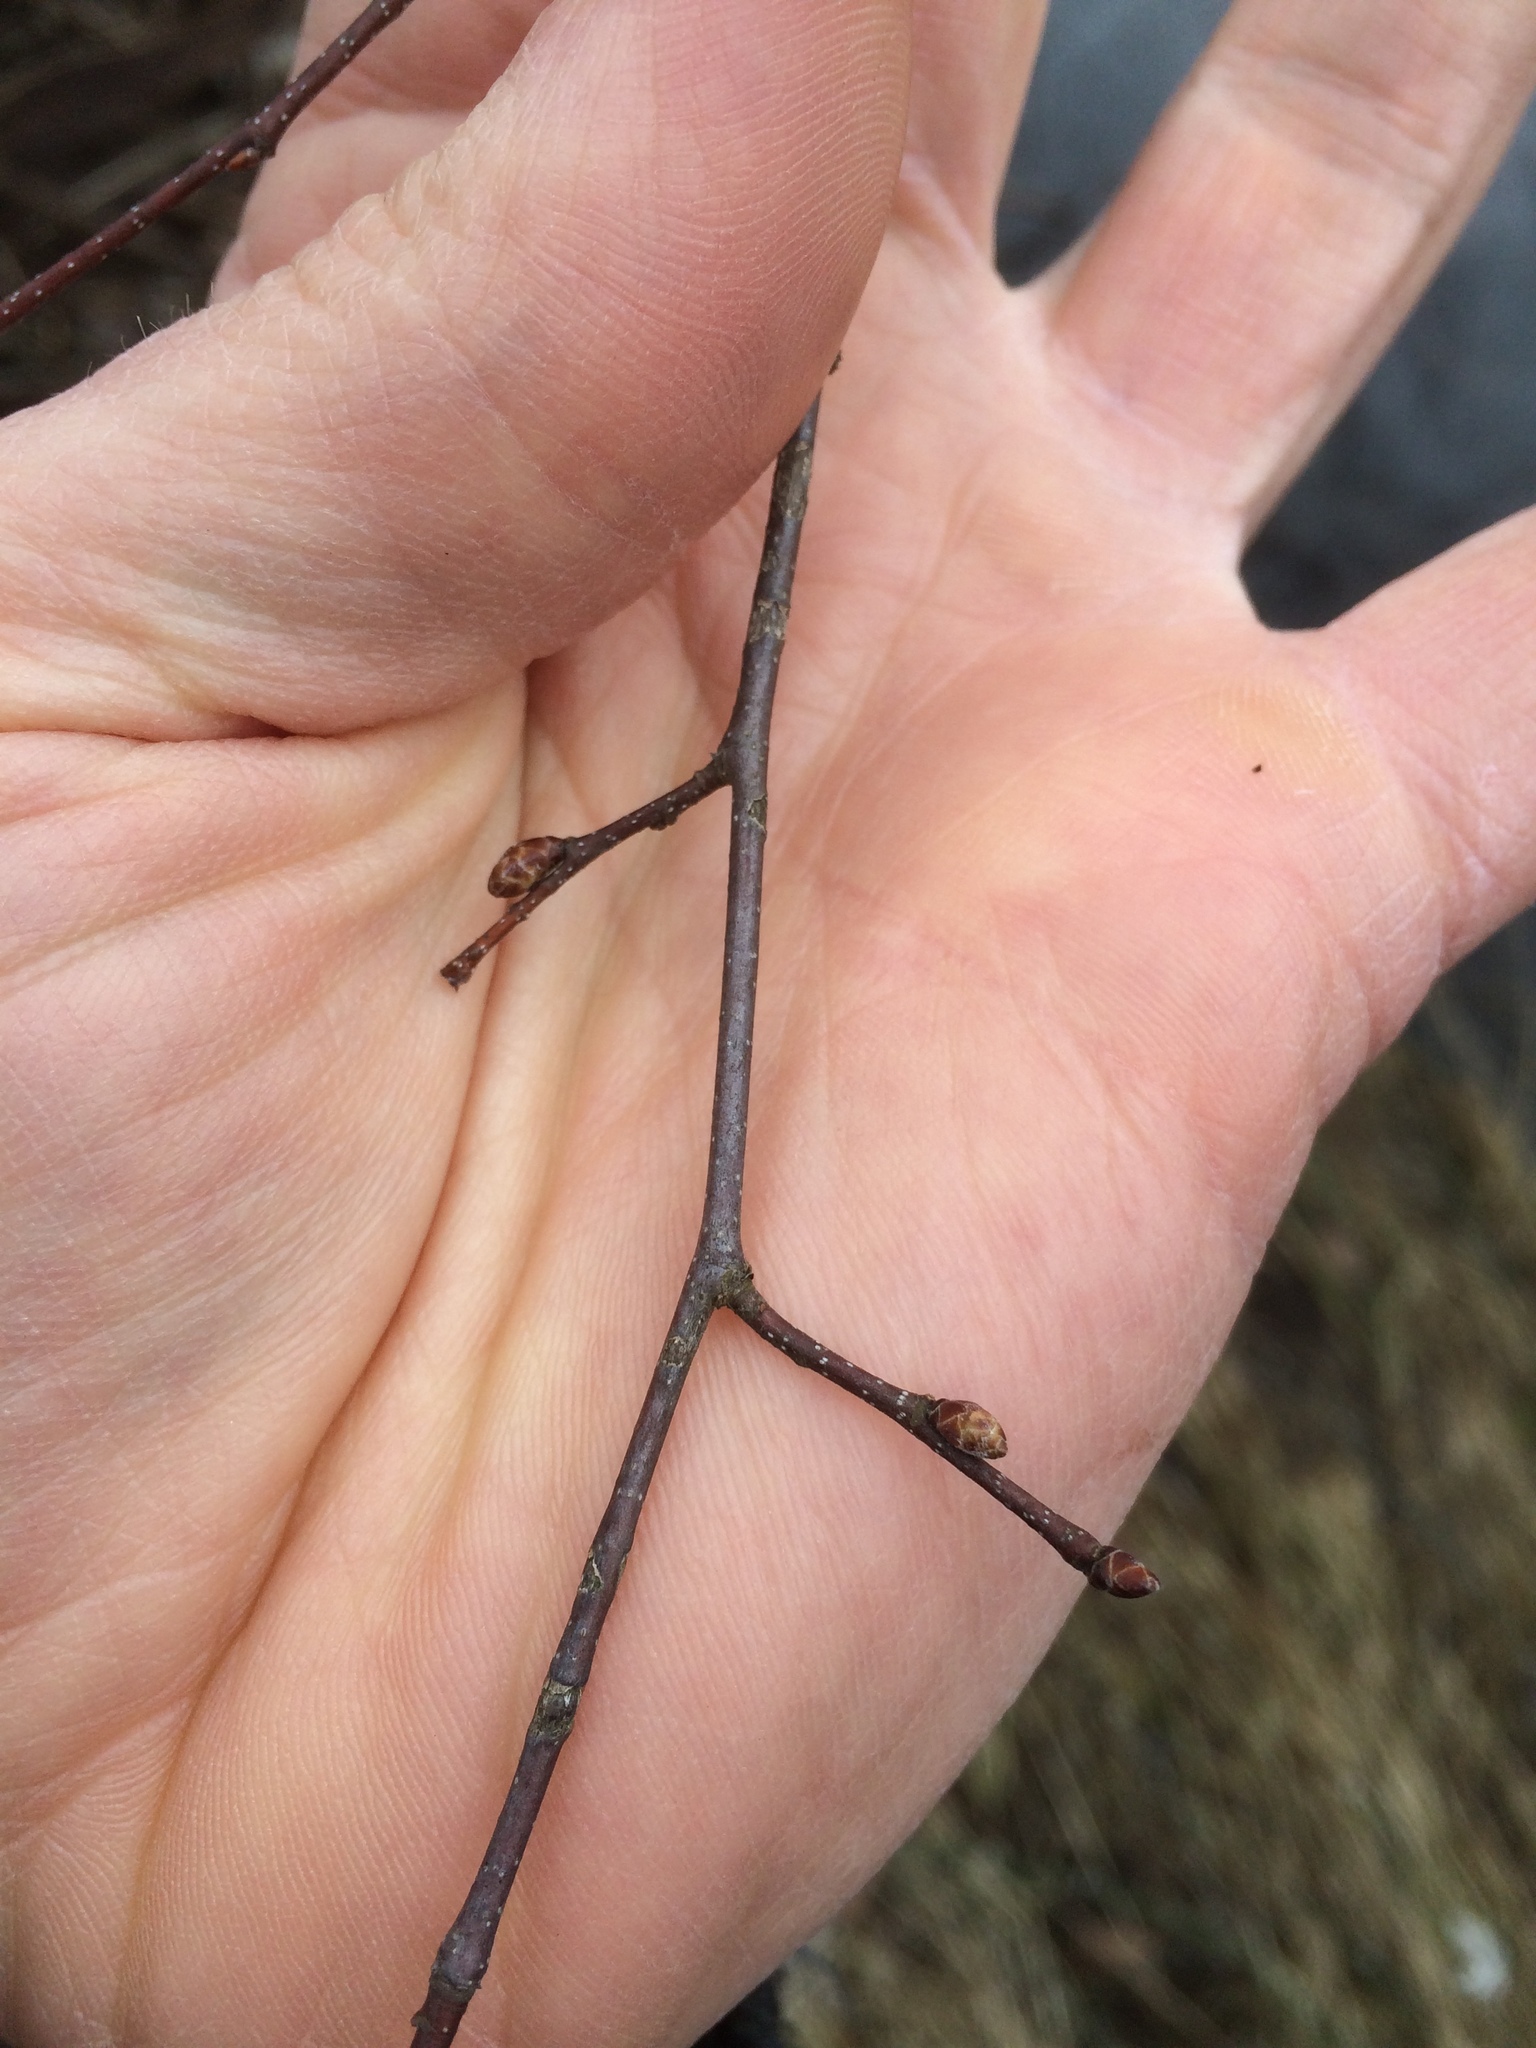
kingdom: Plantae
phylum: Tracheophyta
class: Magnoliopsida
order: Fagales
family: Betulaceae
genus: Carpinus
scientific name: Carpinus caroliniana
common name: American hornbeam
